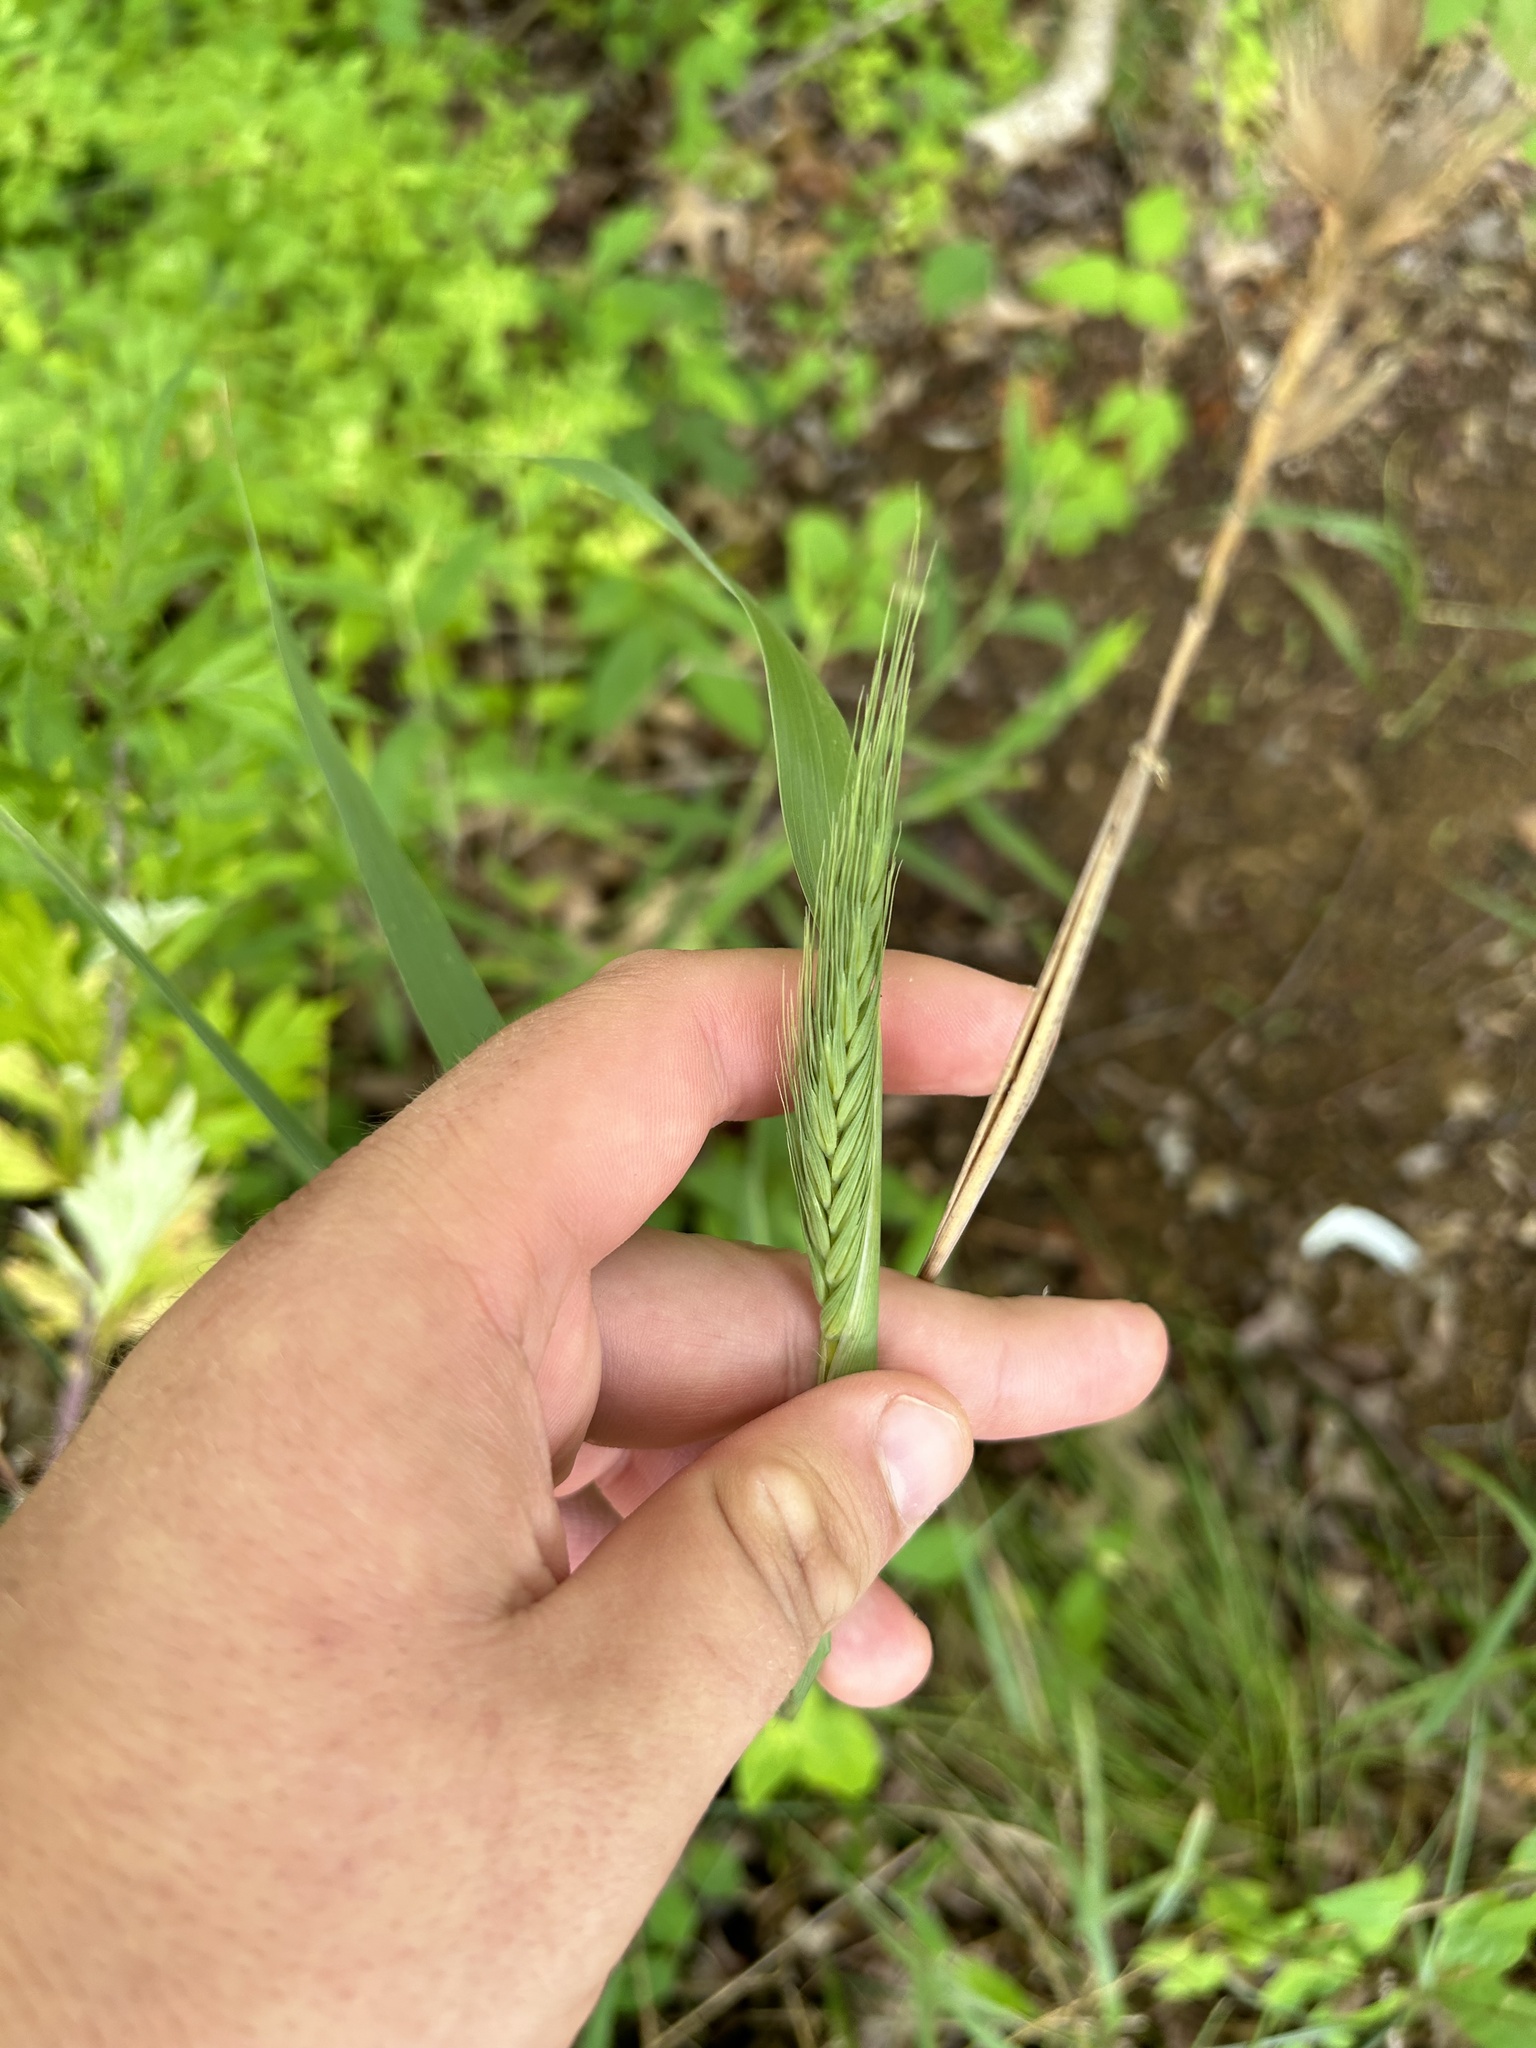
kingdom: Plantae
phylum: Tracheophyta
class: Liliopsida
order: Poales
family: Poaceae
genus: Elymus
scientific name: Elymus virginicus
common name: Common eastern wildrye
